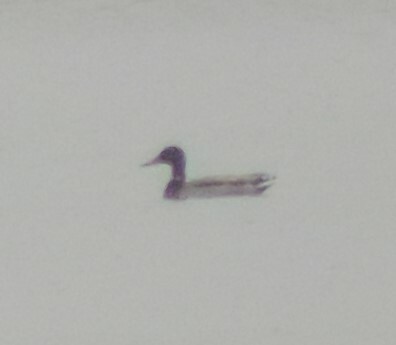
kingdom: Animalia
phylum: Chordata
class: Aves
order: Anseriformes
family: Anatidae
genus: Anas
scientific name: Anas platyrhynchos
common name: Mallard
